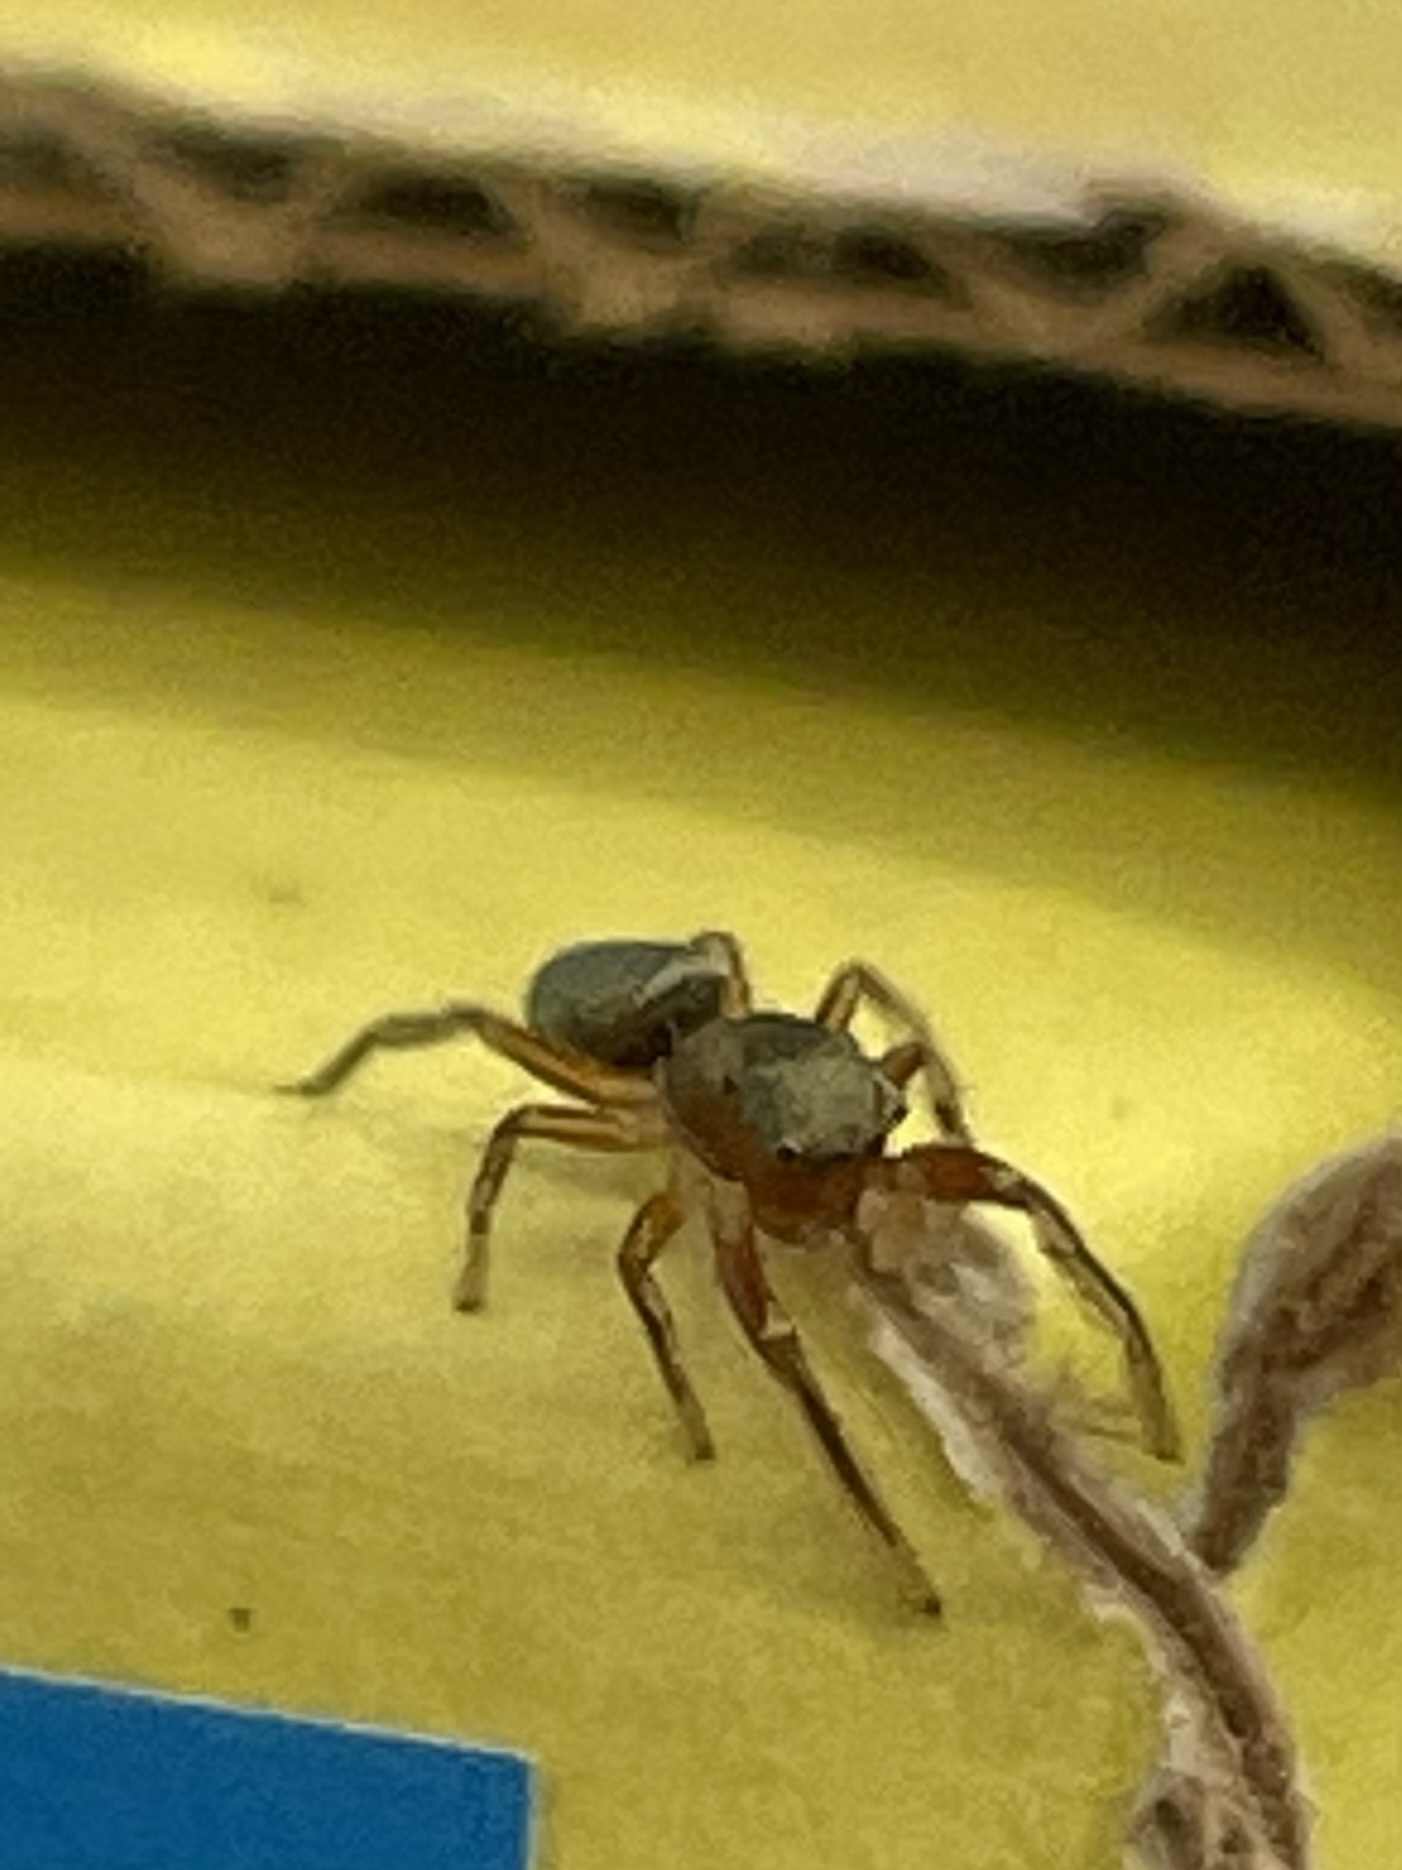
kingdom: Animalia
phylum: Arthropoda
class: Arachnida
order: Araneae
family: Salticidae
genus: Tutelina
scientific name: Tutelina elegans
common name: Thin-spined jumping spider
